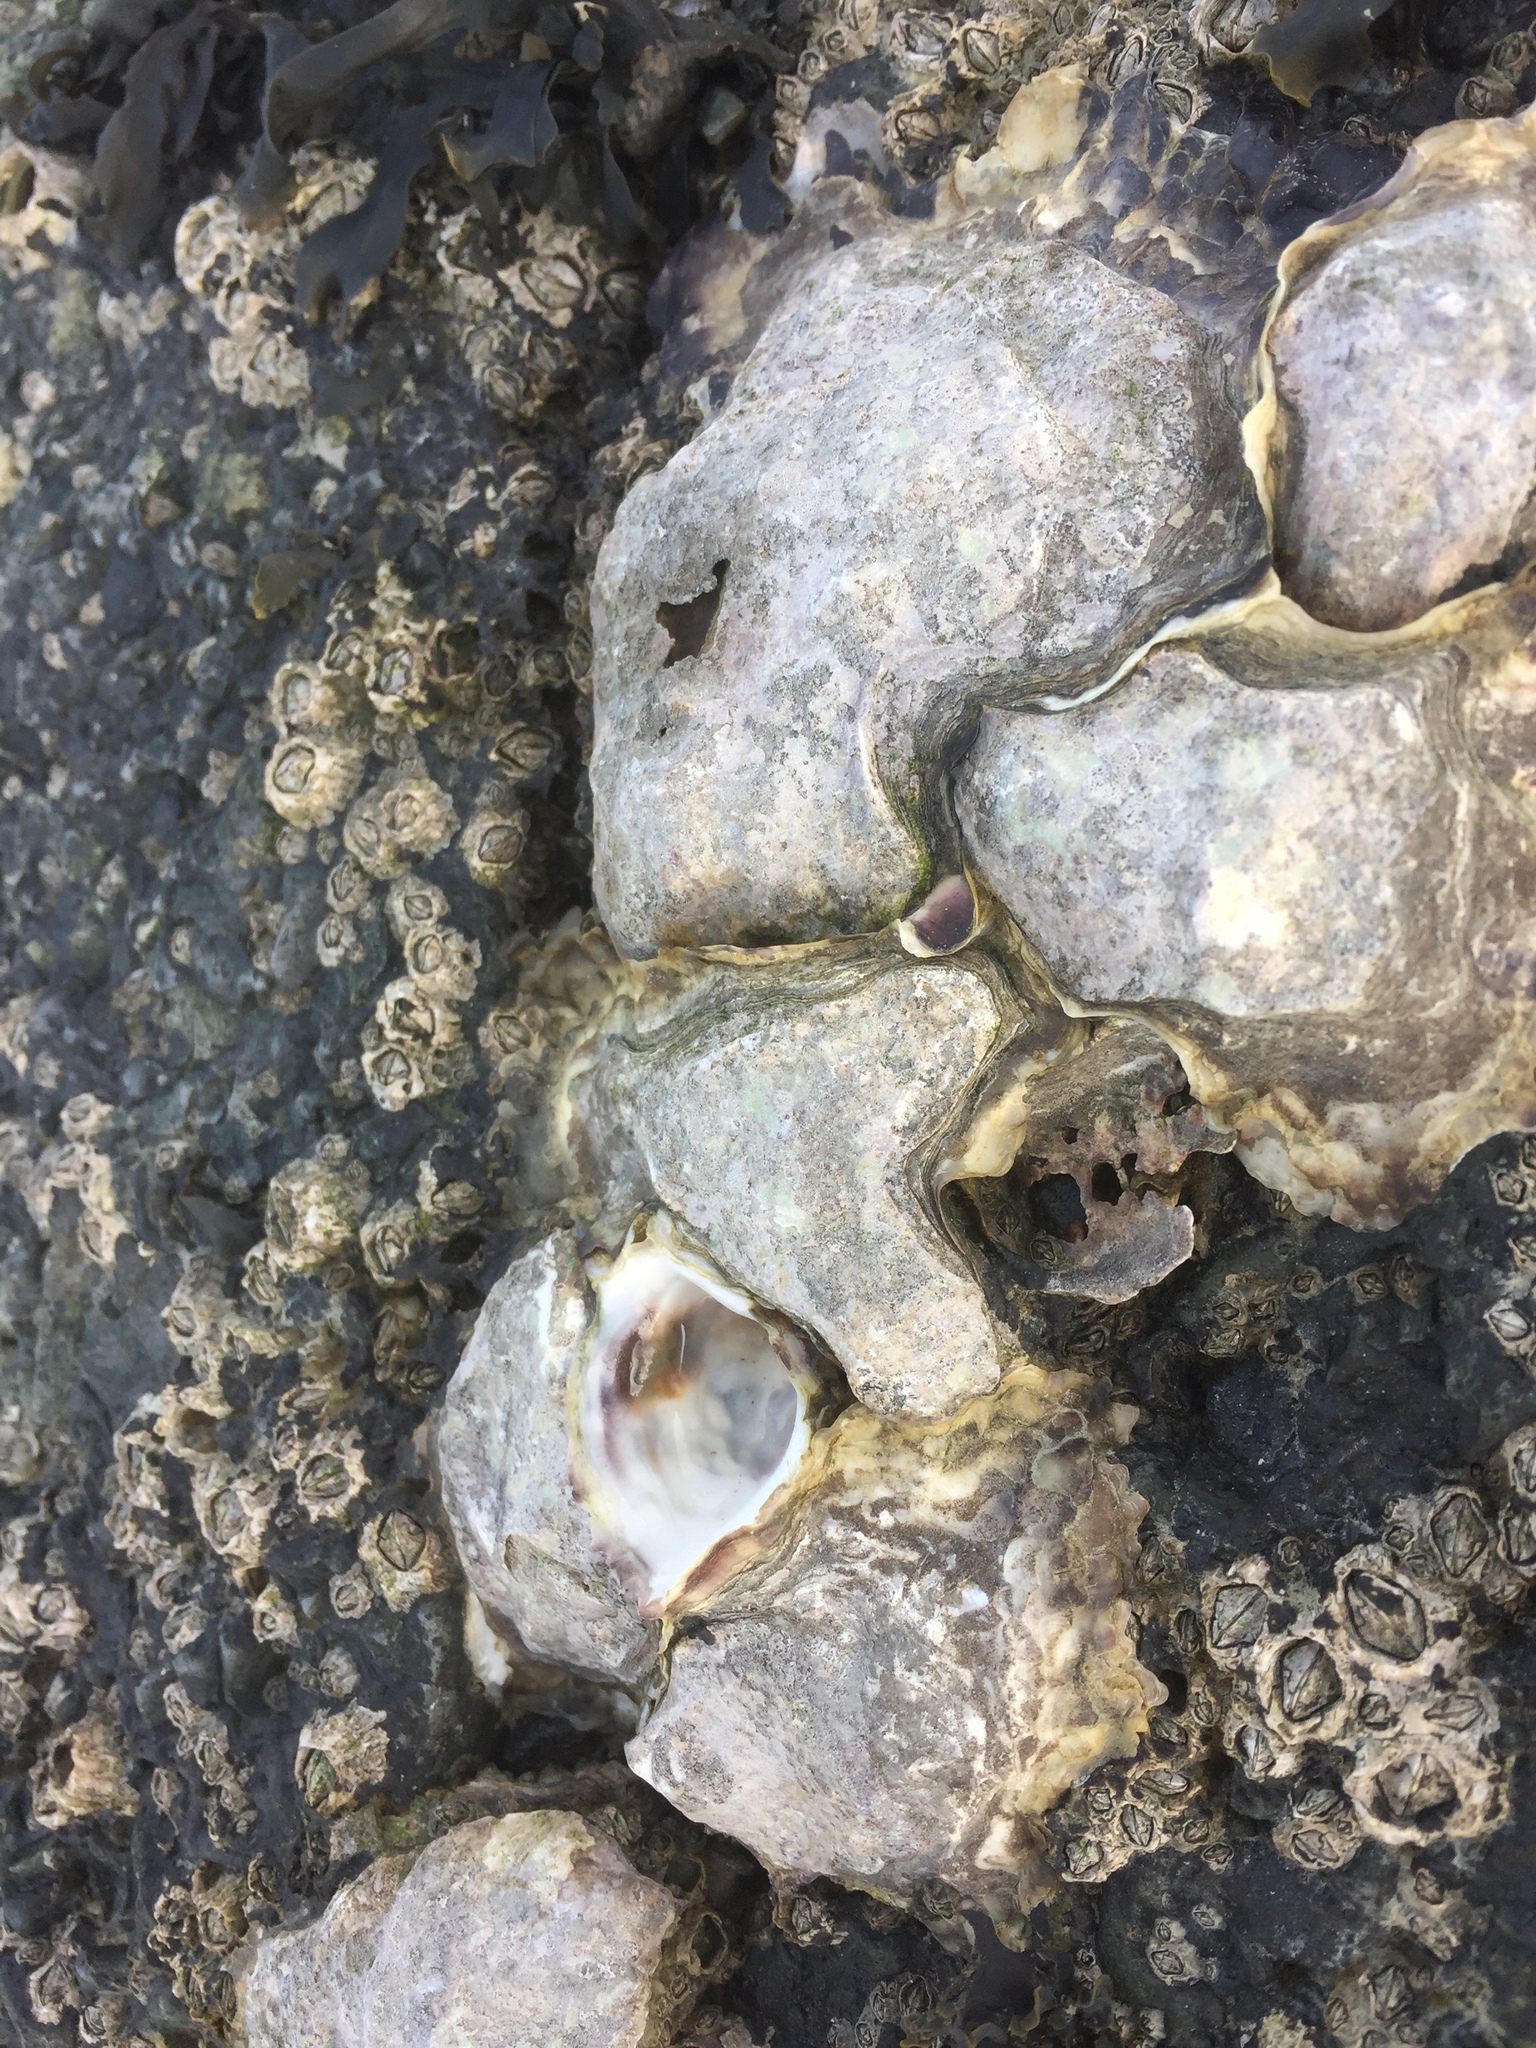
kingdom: Animalia
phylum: Arthropoda
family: Elminiidae
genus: Austrominius
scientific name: Austrominius modestus
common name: Australasian barnacle
